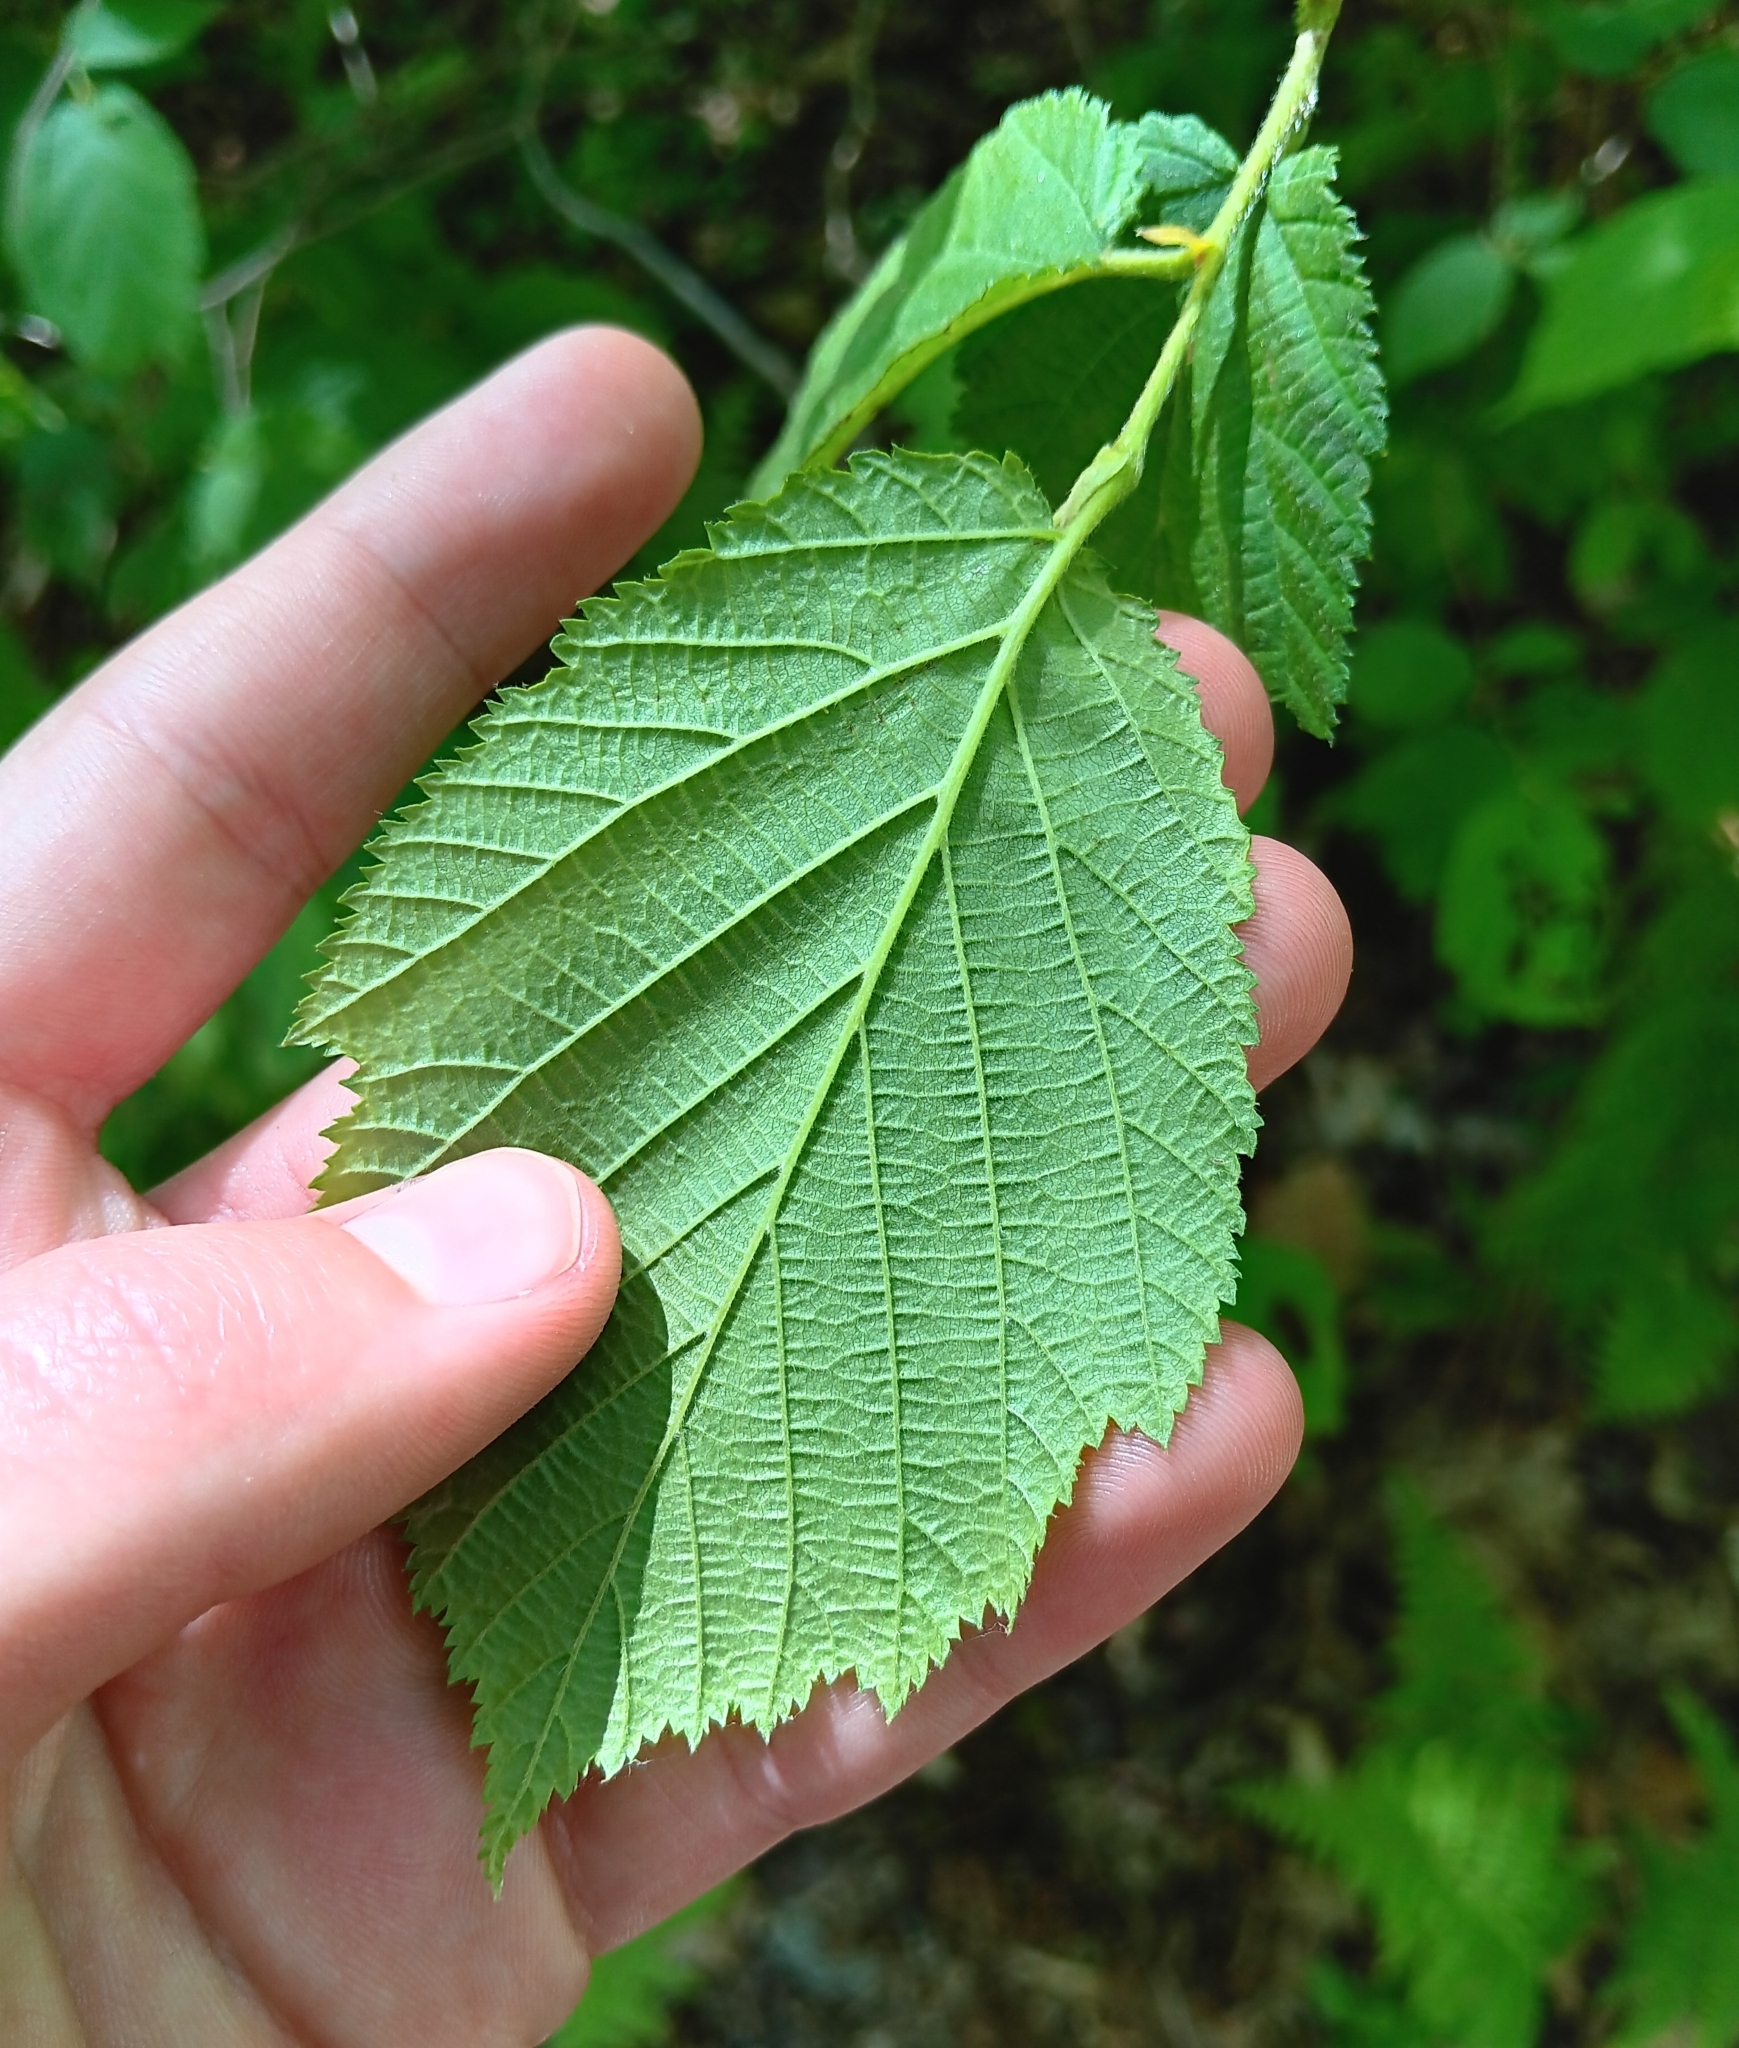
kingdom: Plantae
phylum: Tracheophyta
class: Magnoliopsida
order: Fagales
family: Betulaceae
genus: Corylus
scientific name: Corylus cornuta
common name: Beaked hazel
